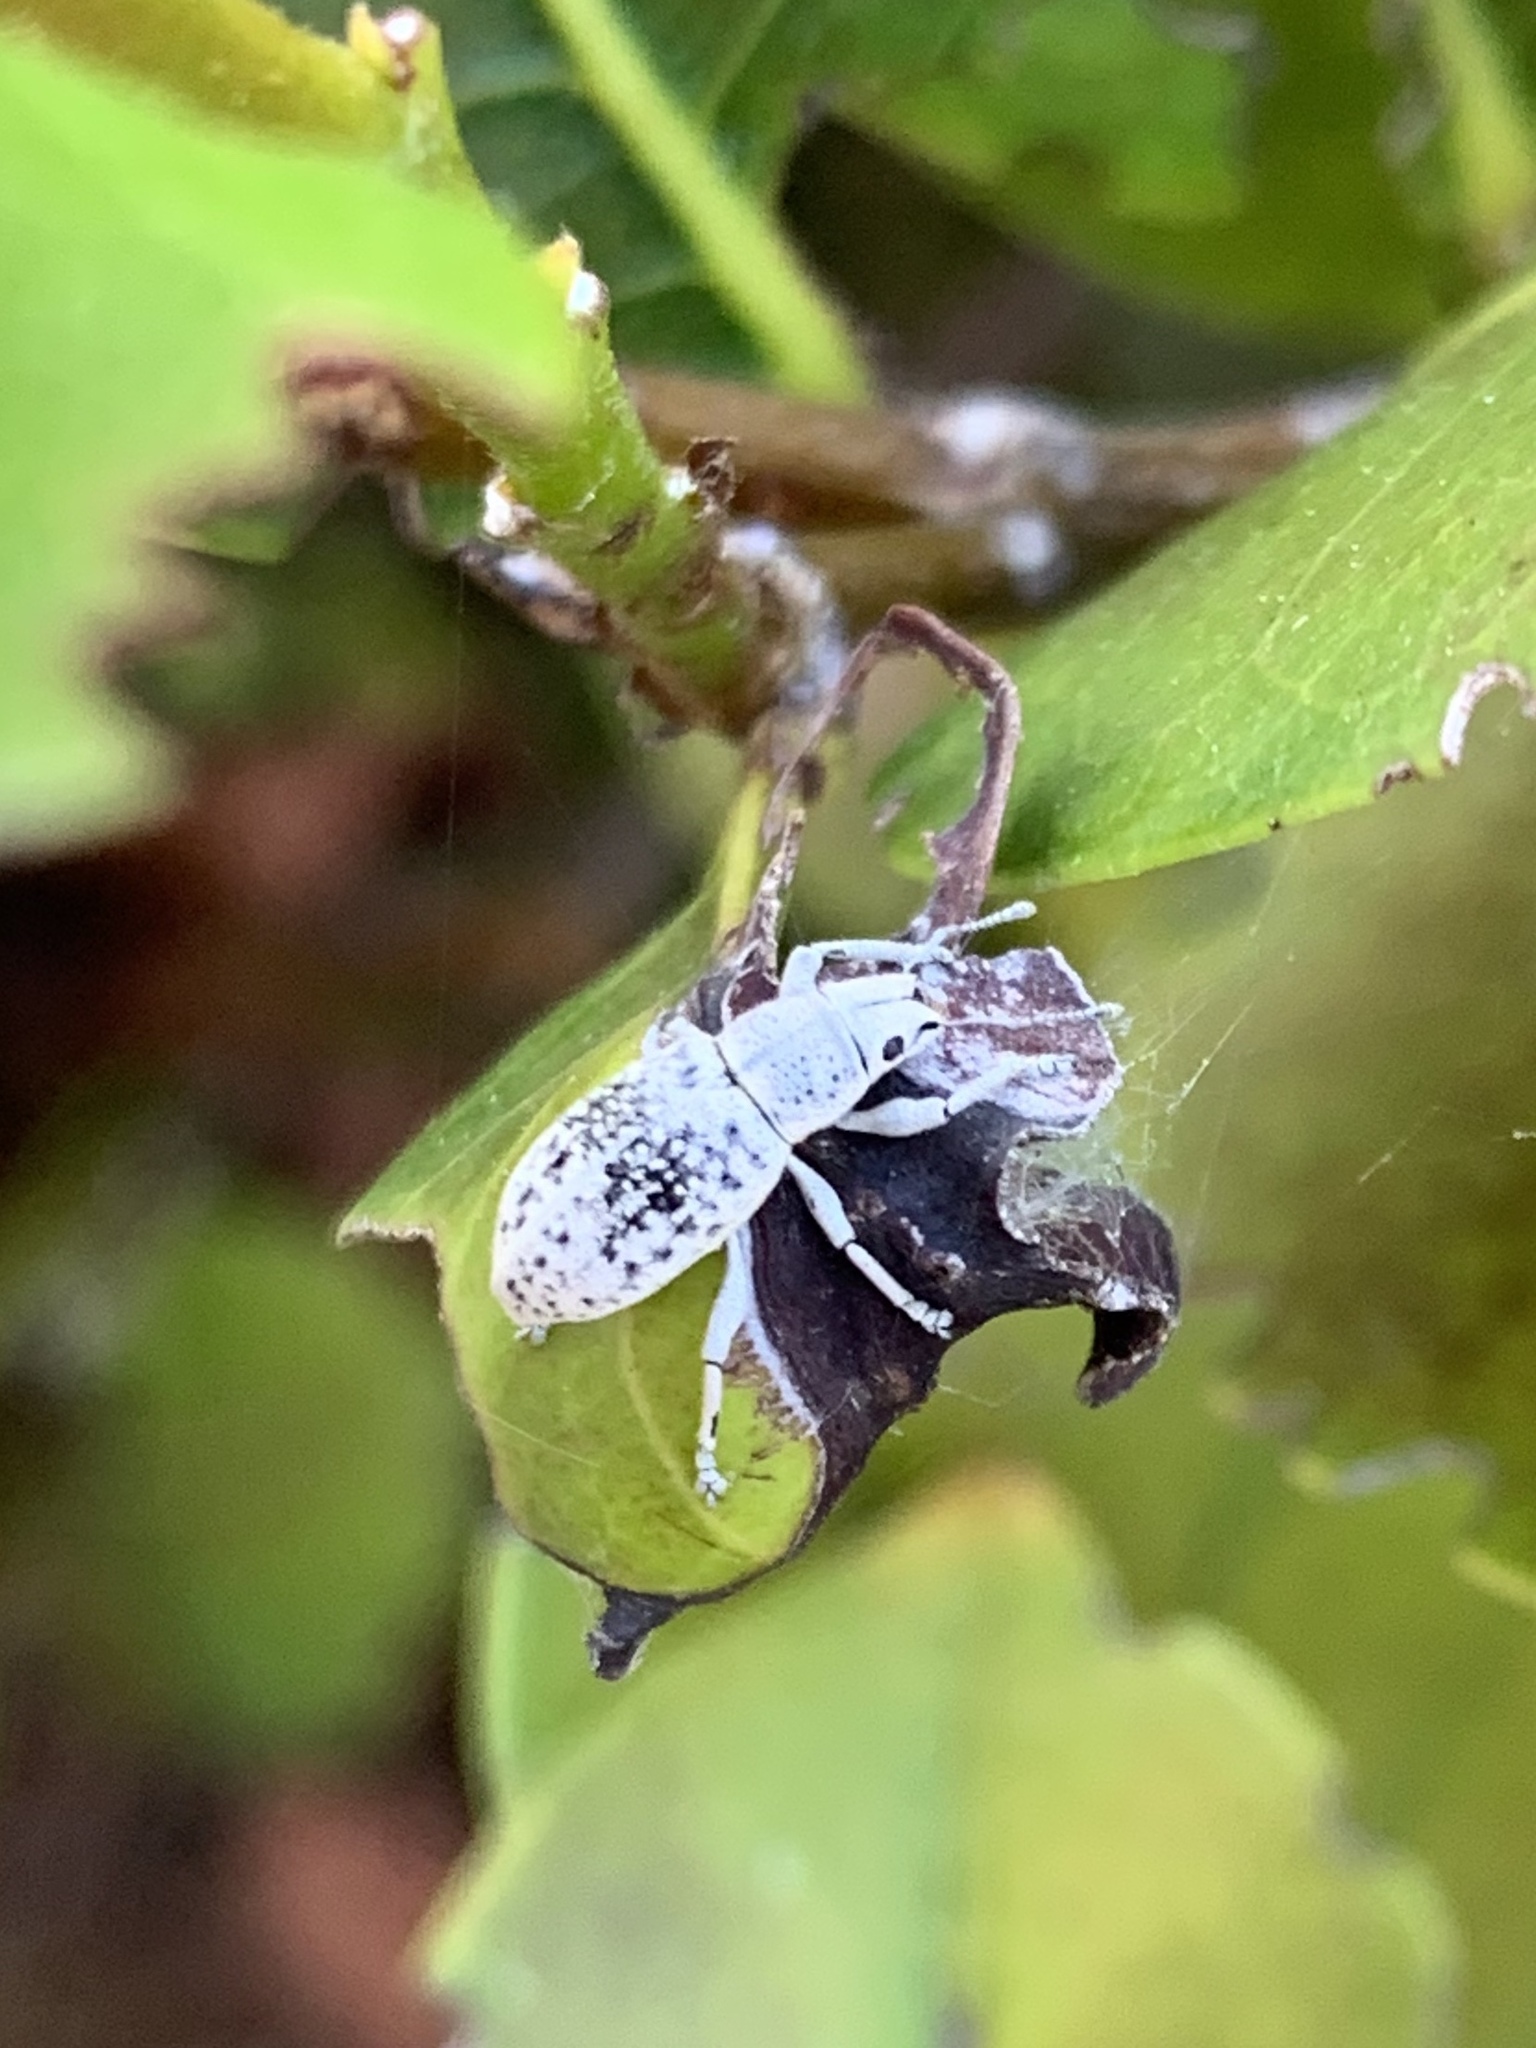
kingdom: Animalia
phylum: Arthropoda
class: Insecta
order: Coleoptera
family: Curculionidae
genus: Artipus
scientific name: Artipus floridanus
